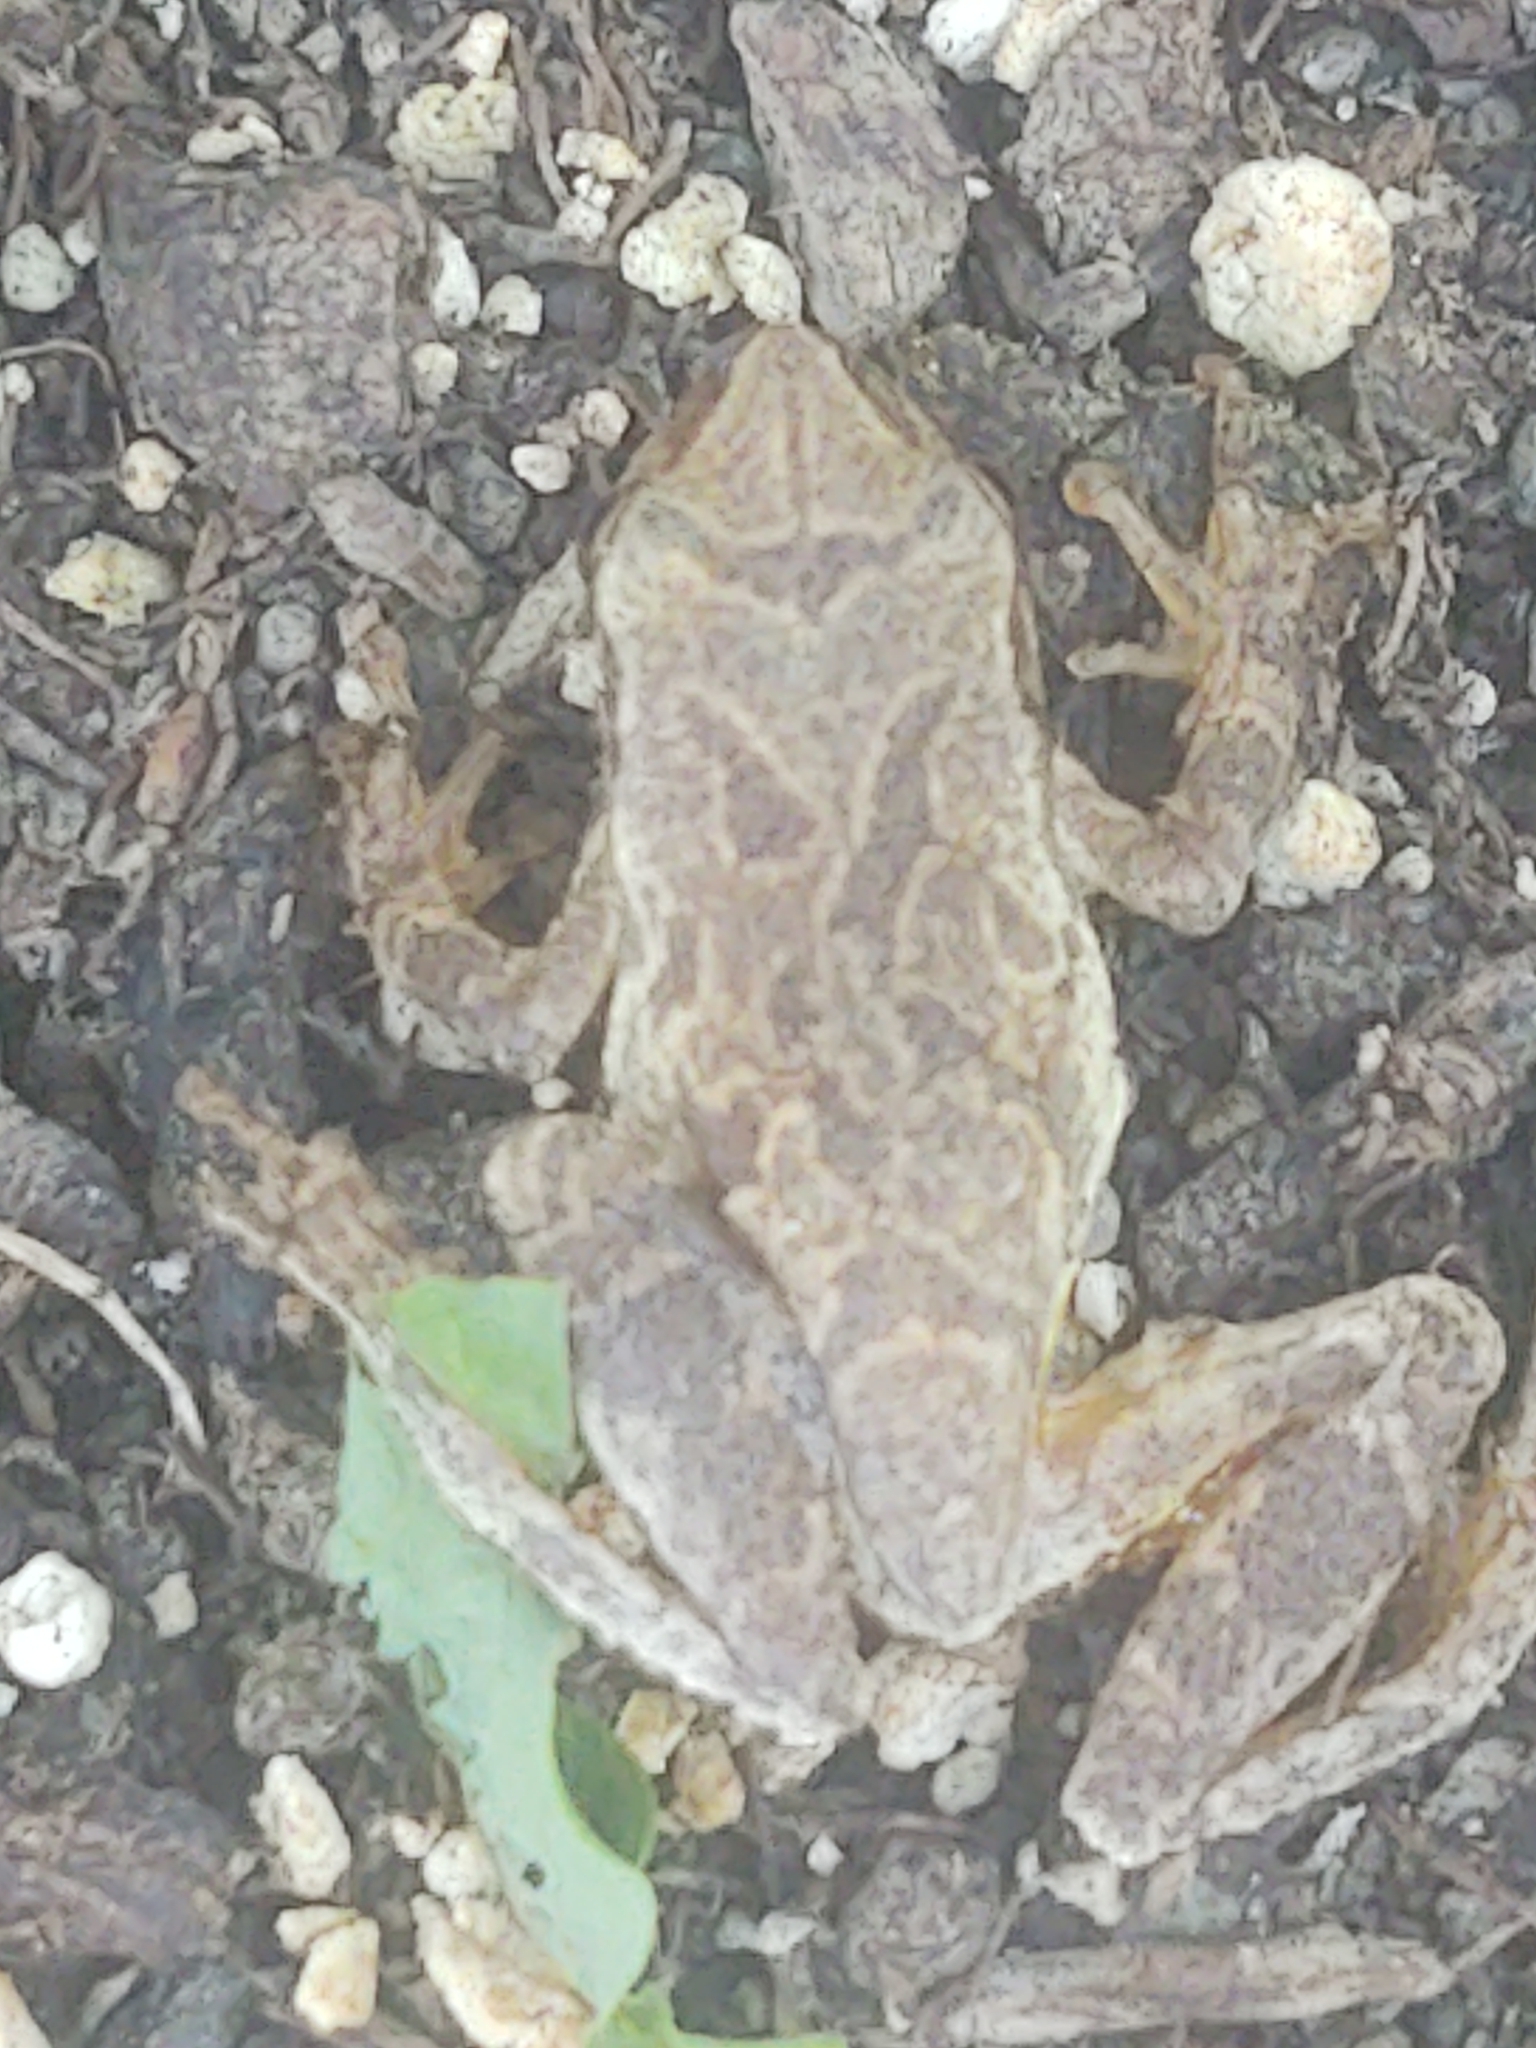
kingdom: Animalia
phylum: Chordata
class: Amphibia
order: Anura
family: Hylidae
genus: Pseudacris
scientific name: Pseudacris crucifer
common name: Spring peeper
